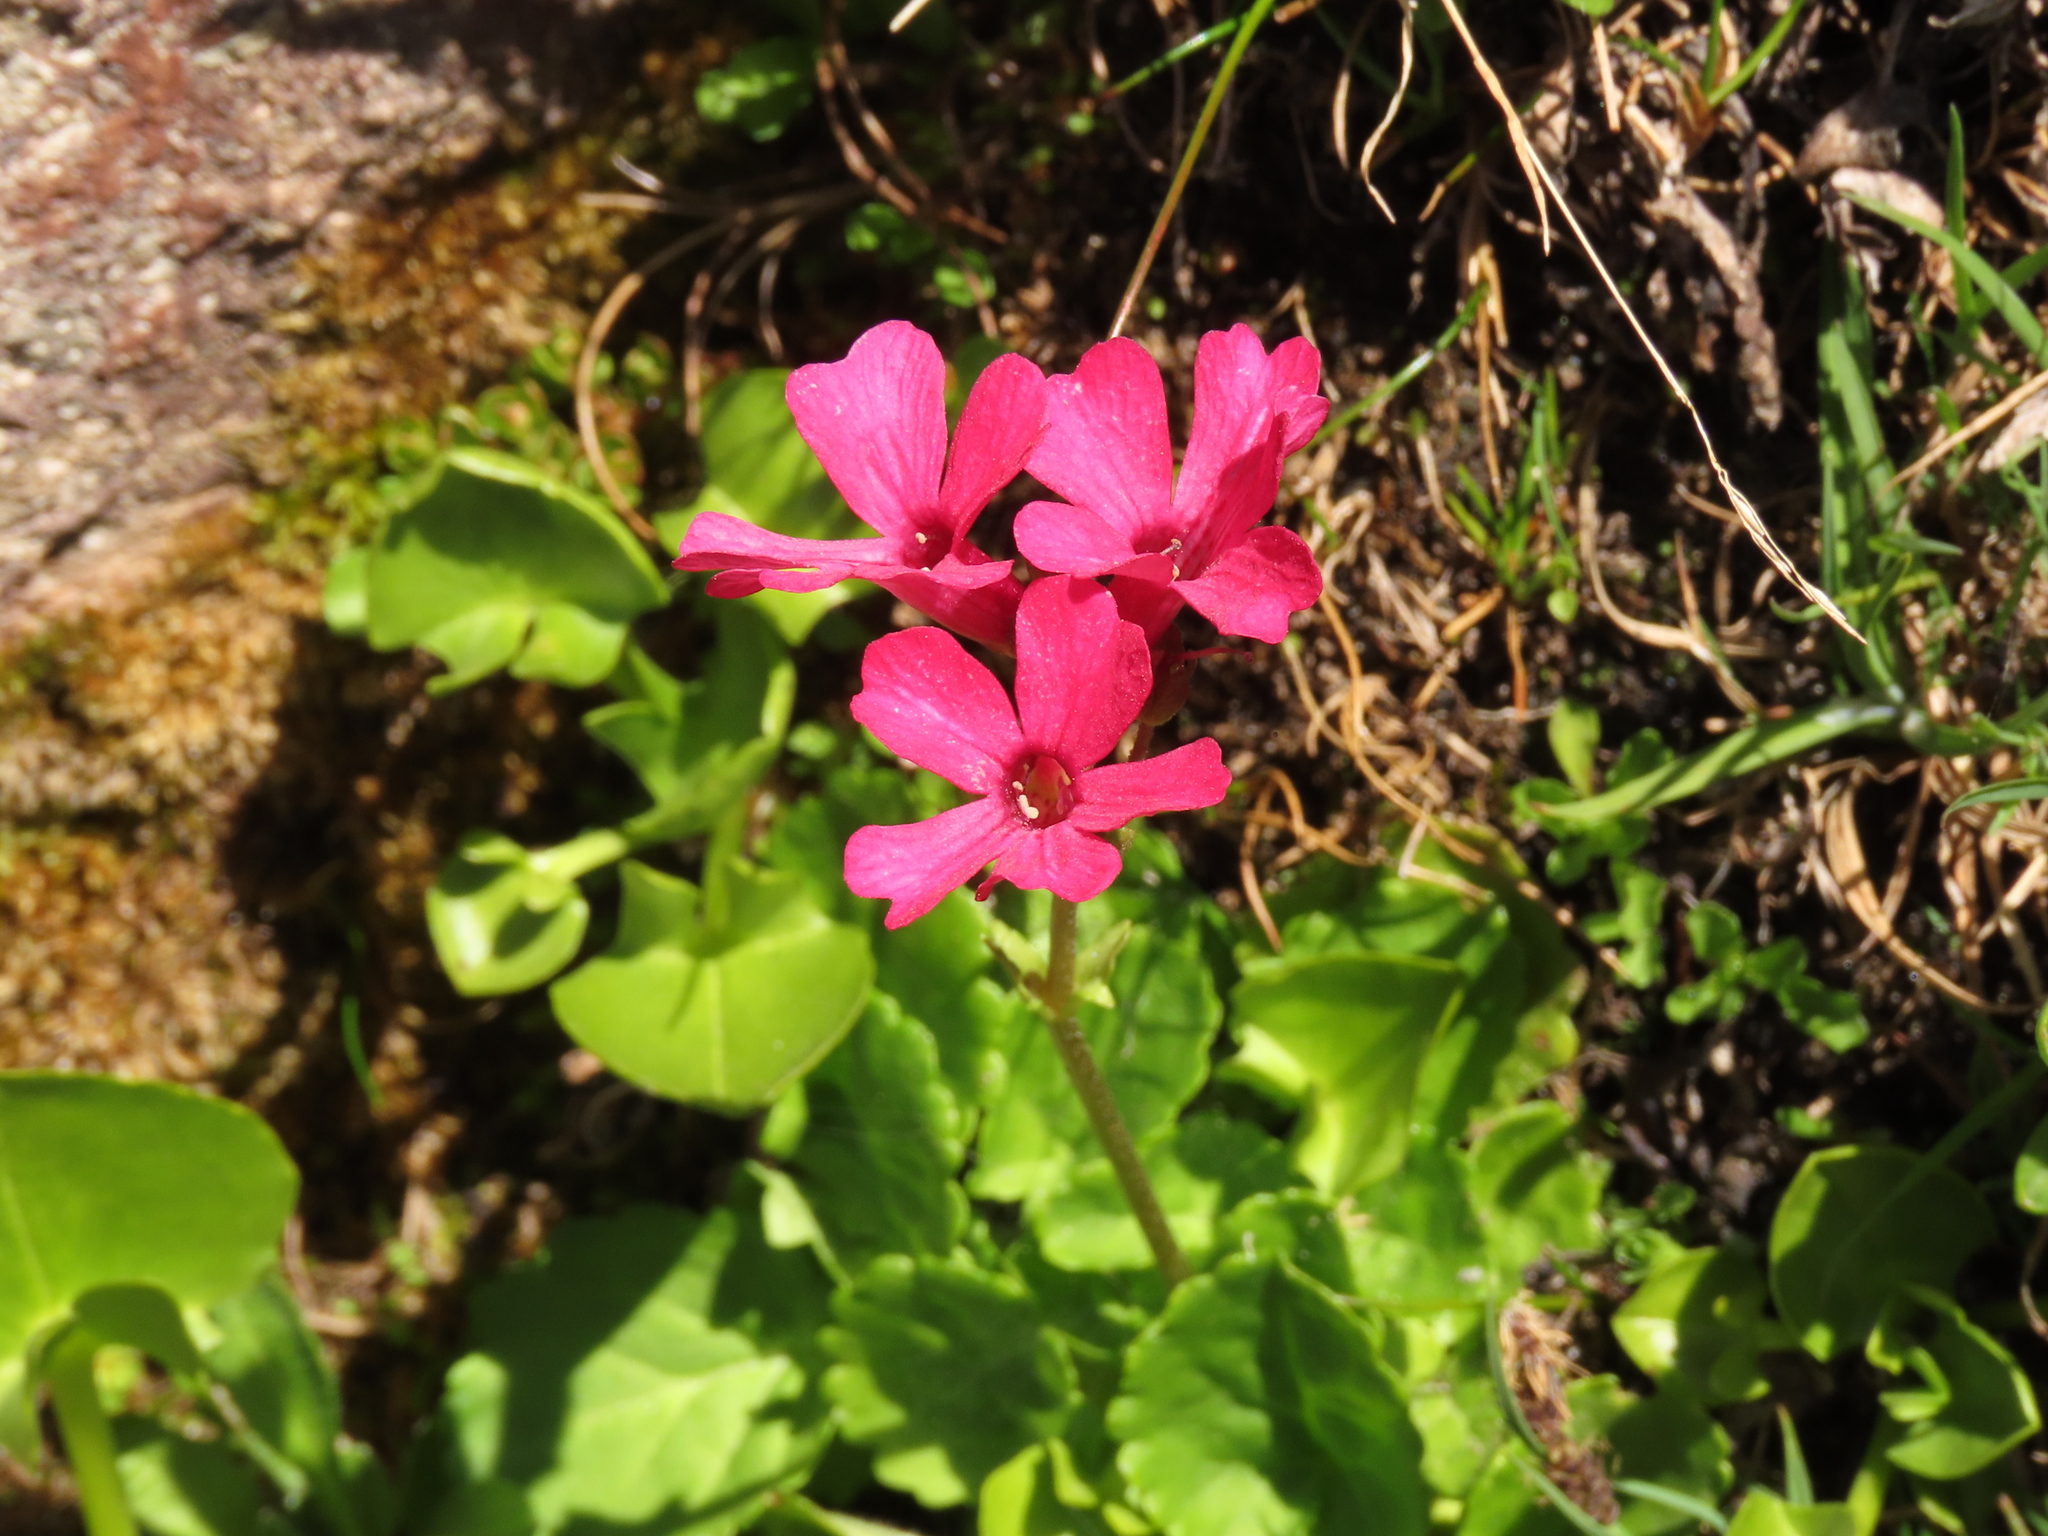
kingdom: Plantae
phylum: Tracheophyta
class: Magnoliopsida
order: Lamiales
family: Plantaginaceae
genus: Ourisia
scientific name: Ourisia alpina
